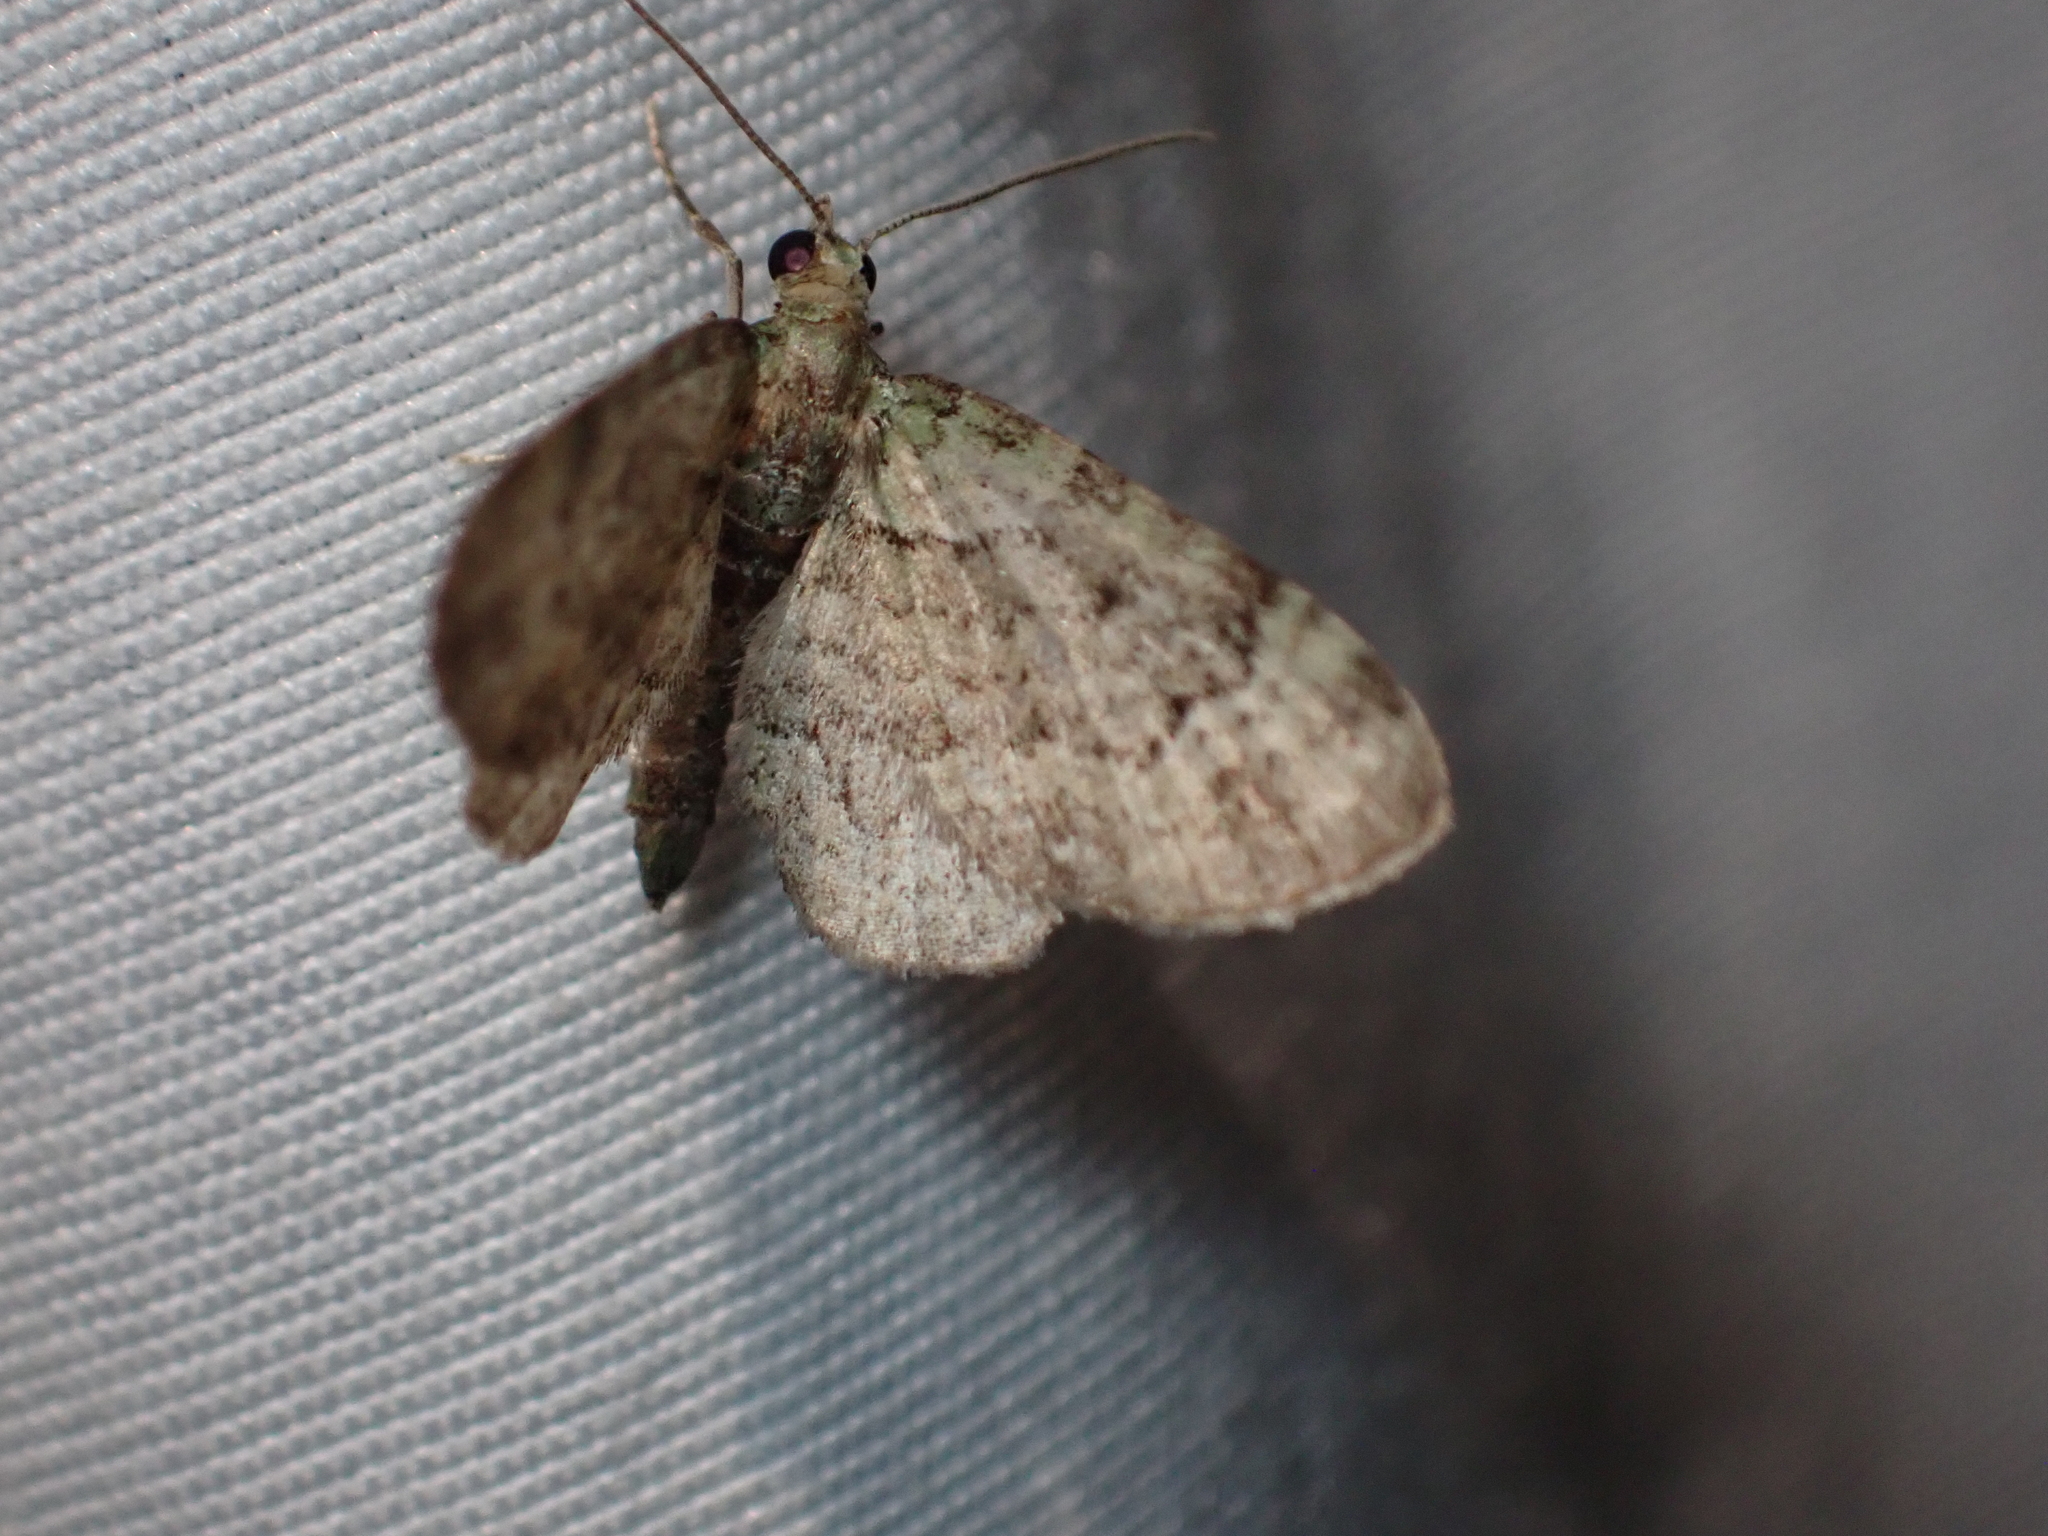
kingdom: Animalia
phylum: Arthropoda
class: Insecta
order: Lepidoptera
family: Geometridae
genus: Pasiphila
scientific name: Pasiphila rectangulata
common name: Green pug
